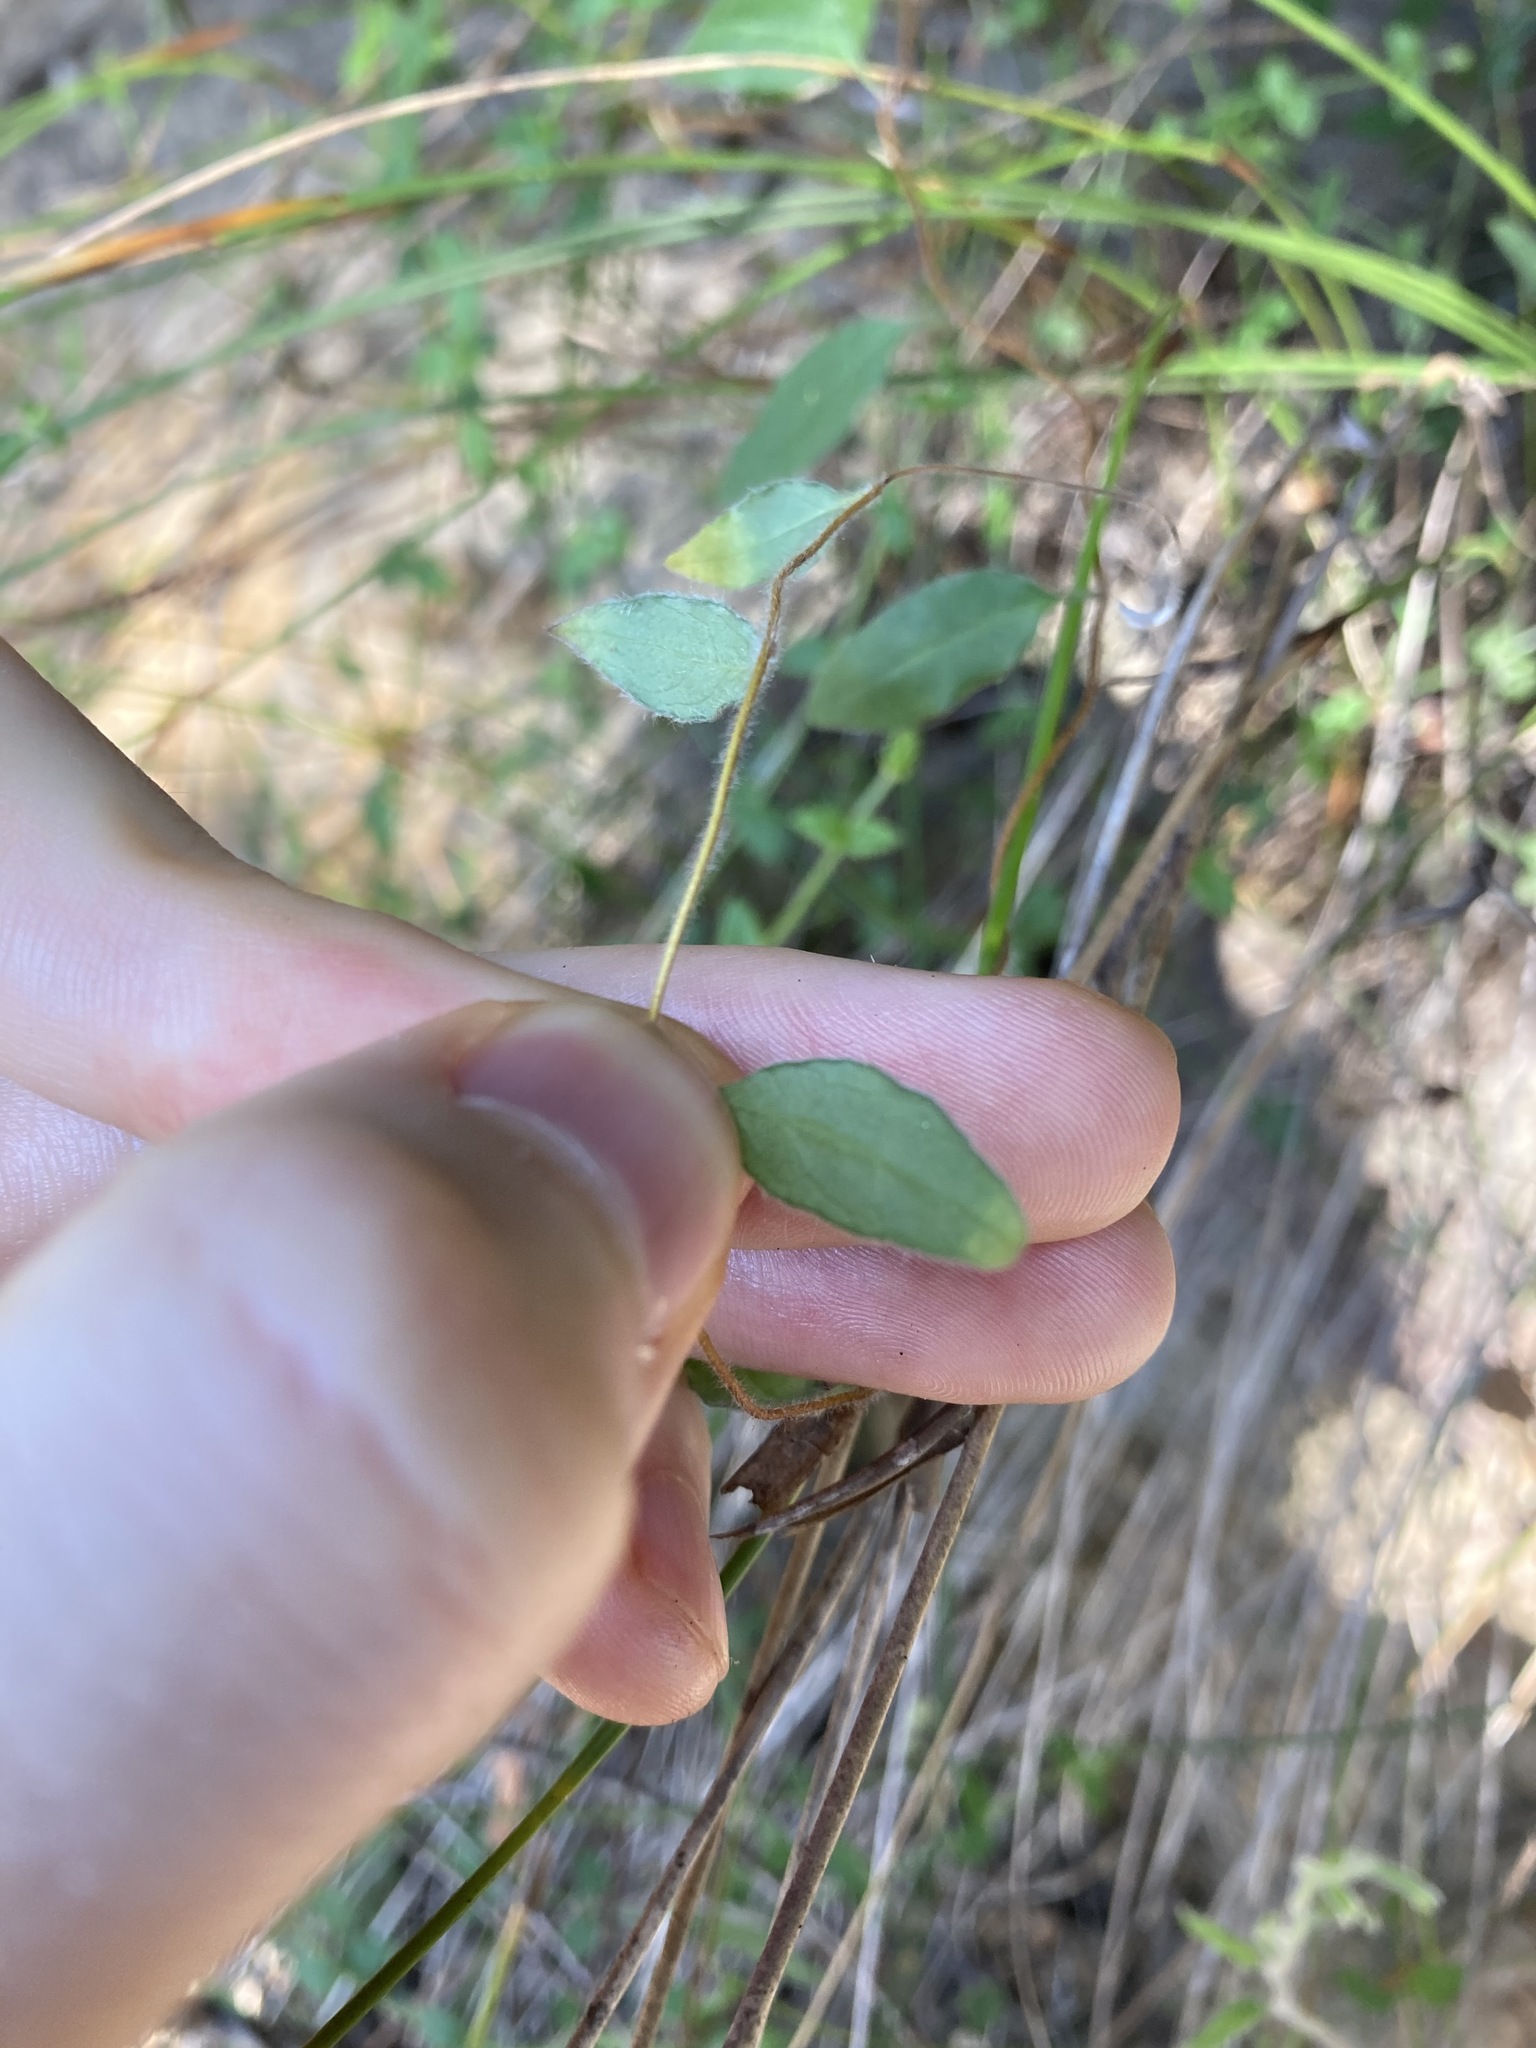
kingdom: Plantae
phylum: Tracheophyta
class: Magnoliopsida
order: Apiales
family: Pittosporaceae
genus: Billardiera
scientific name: Billardiera scandens
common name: Apple-berry
